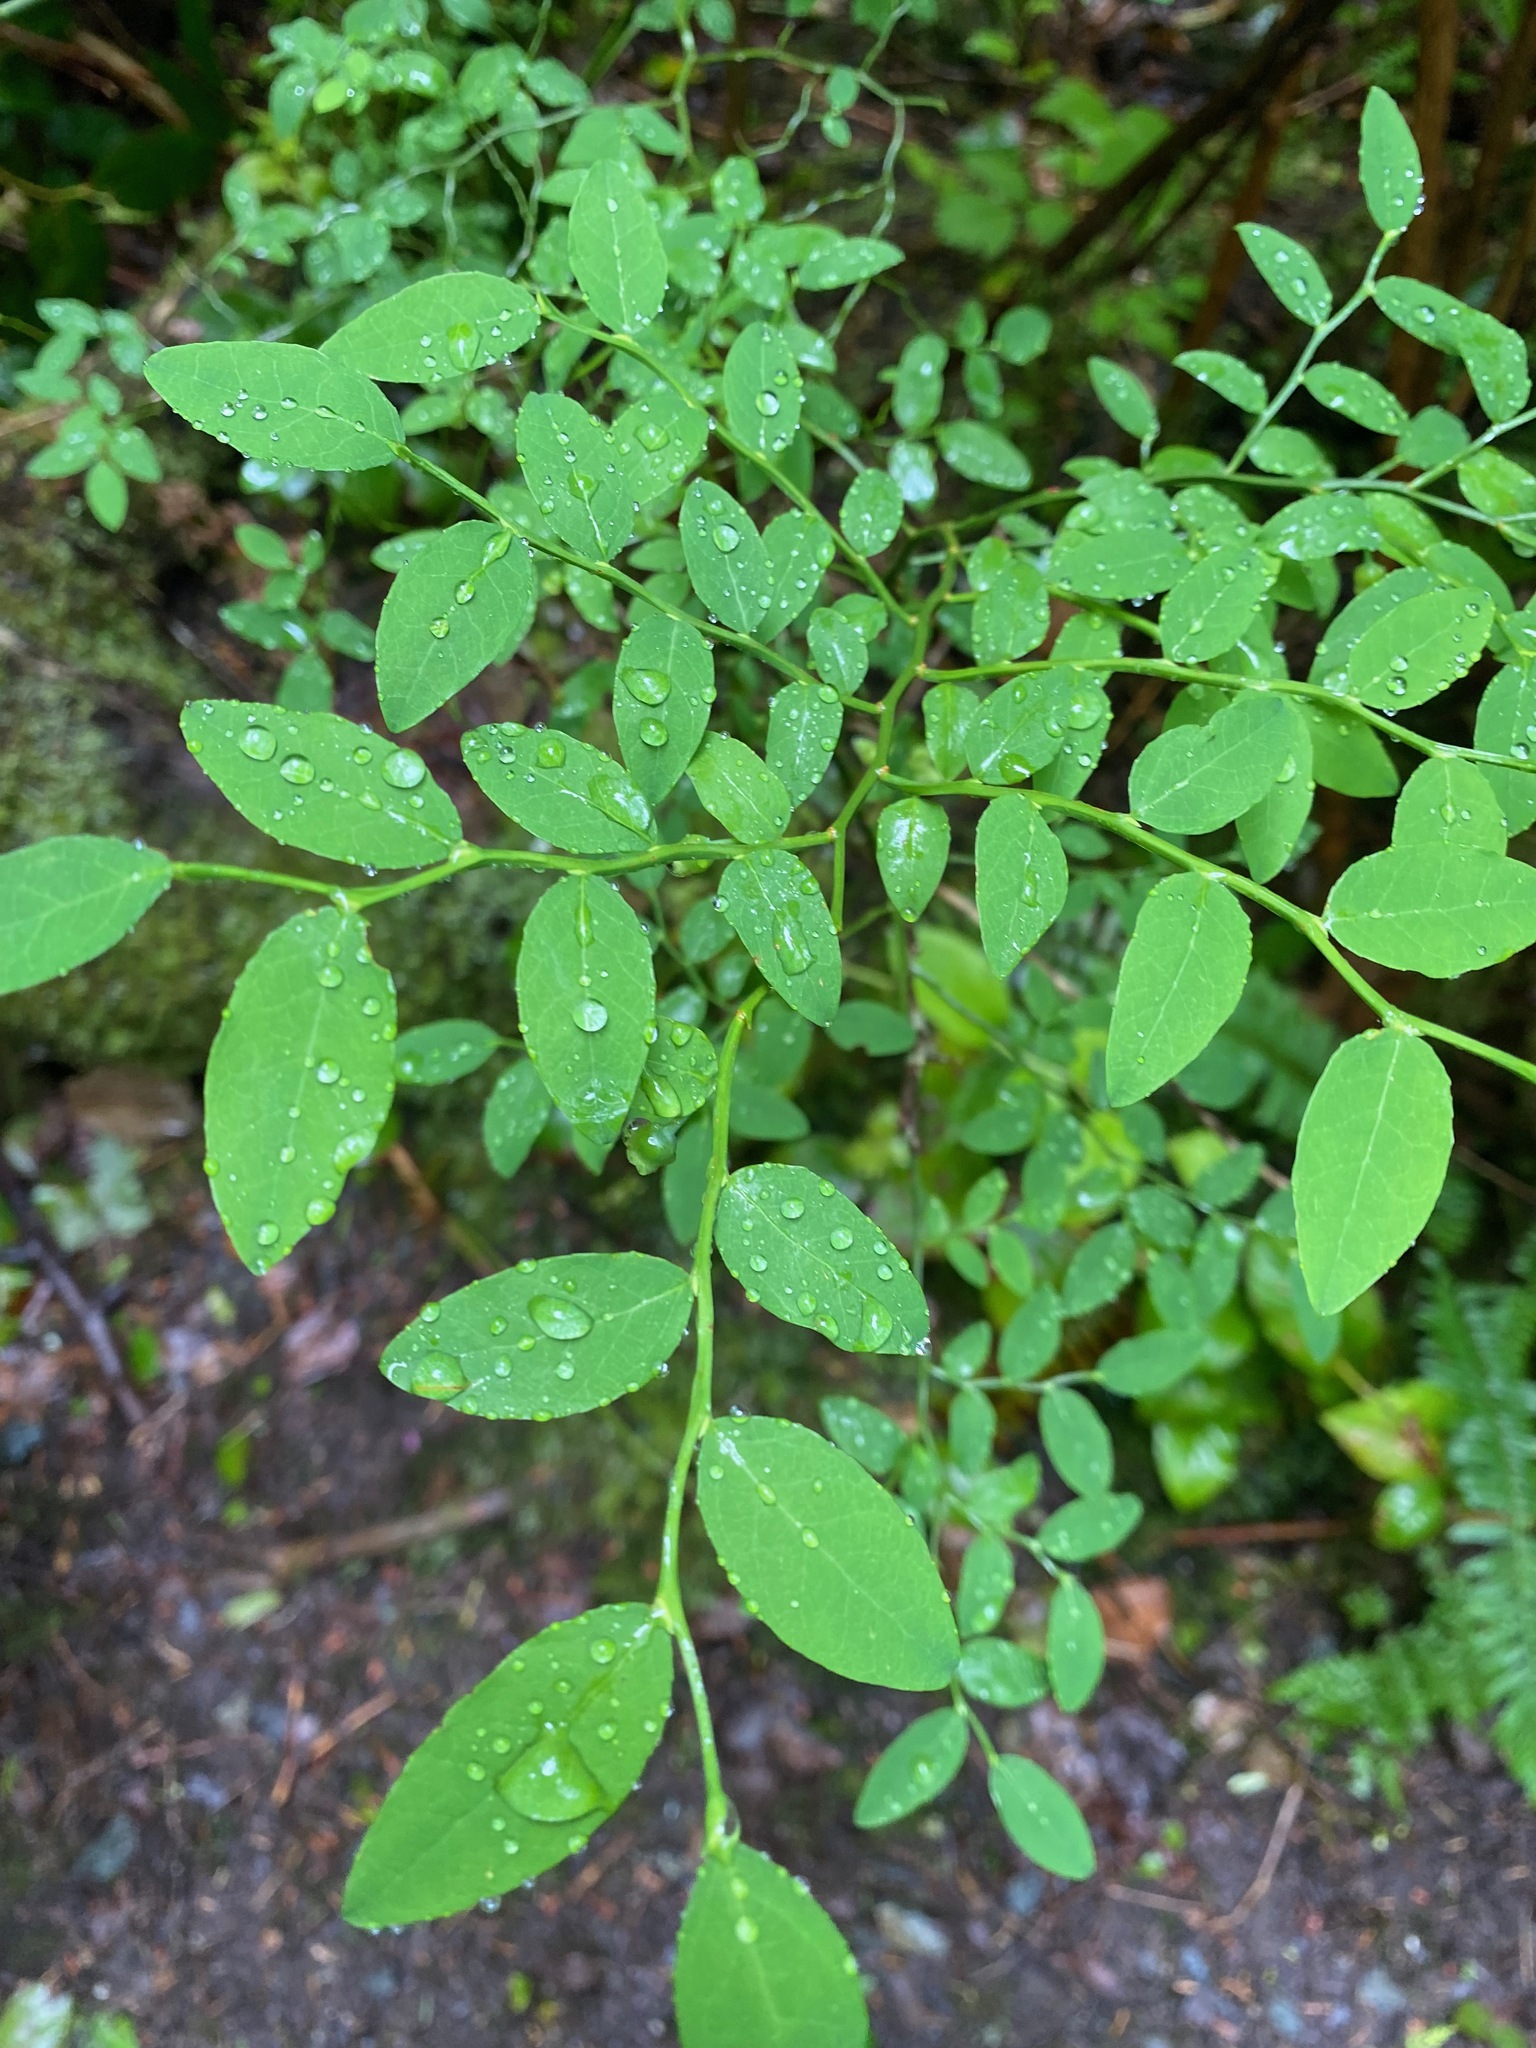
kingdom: Plantae
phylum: Tracheophyta
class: Magnoliopsida
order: Ericales
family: Ericaceae
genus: Vaccinium
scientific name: Vaccinium parvifolium
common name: Red-huckleberry
